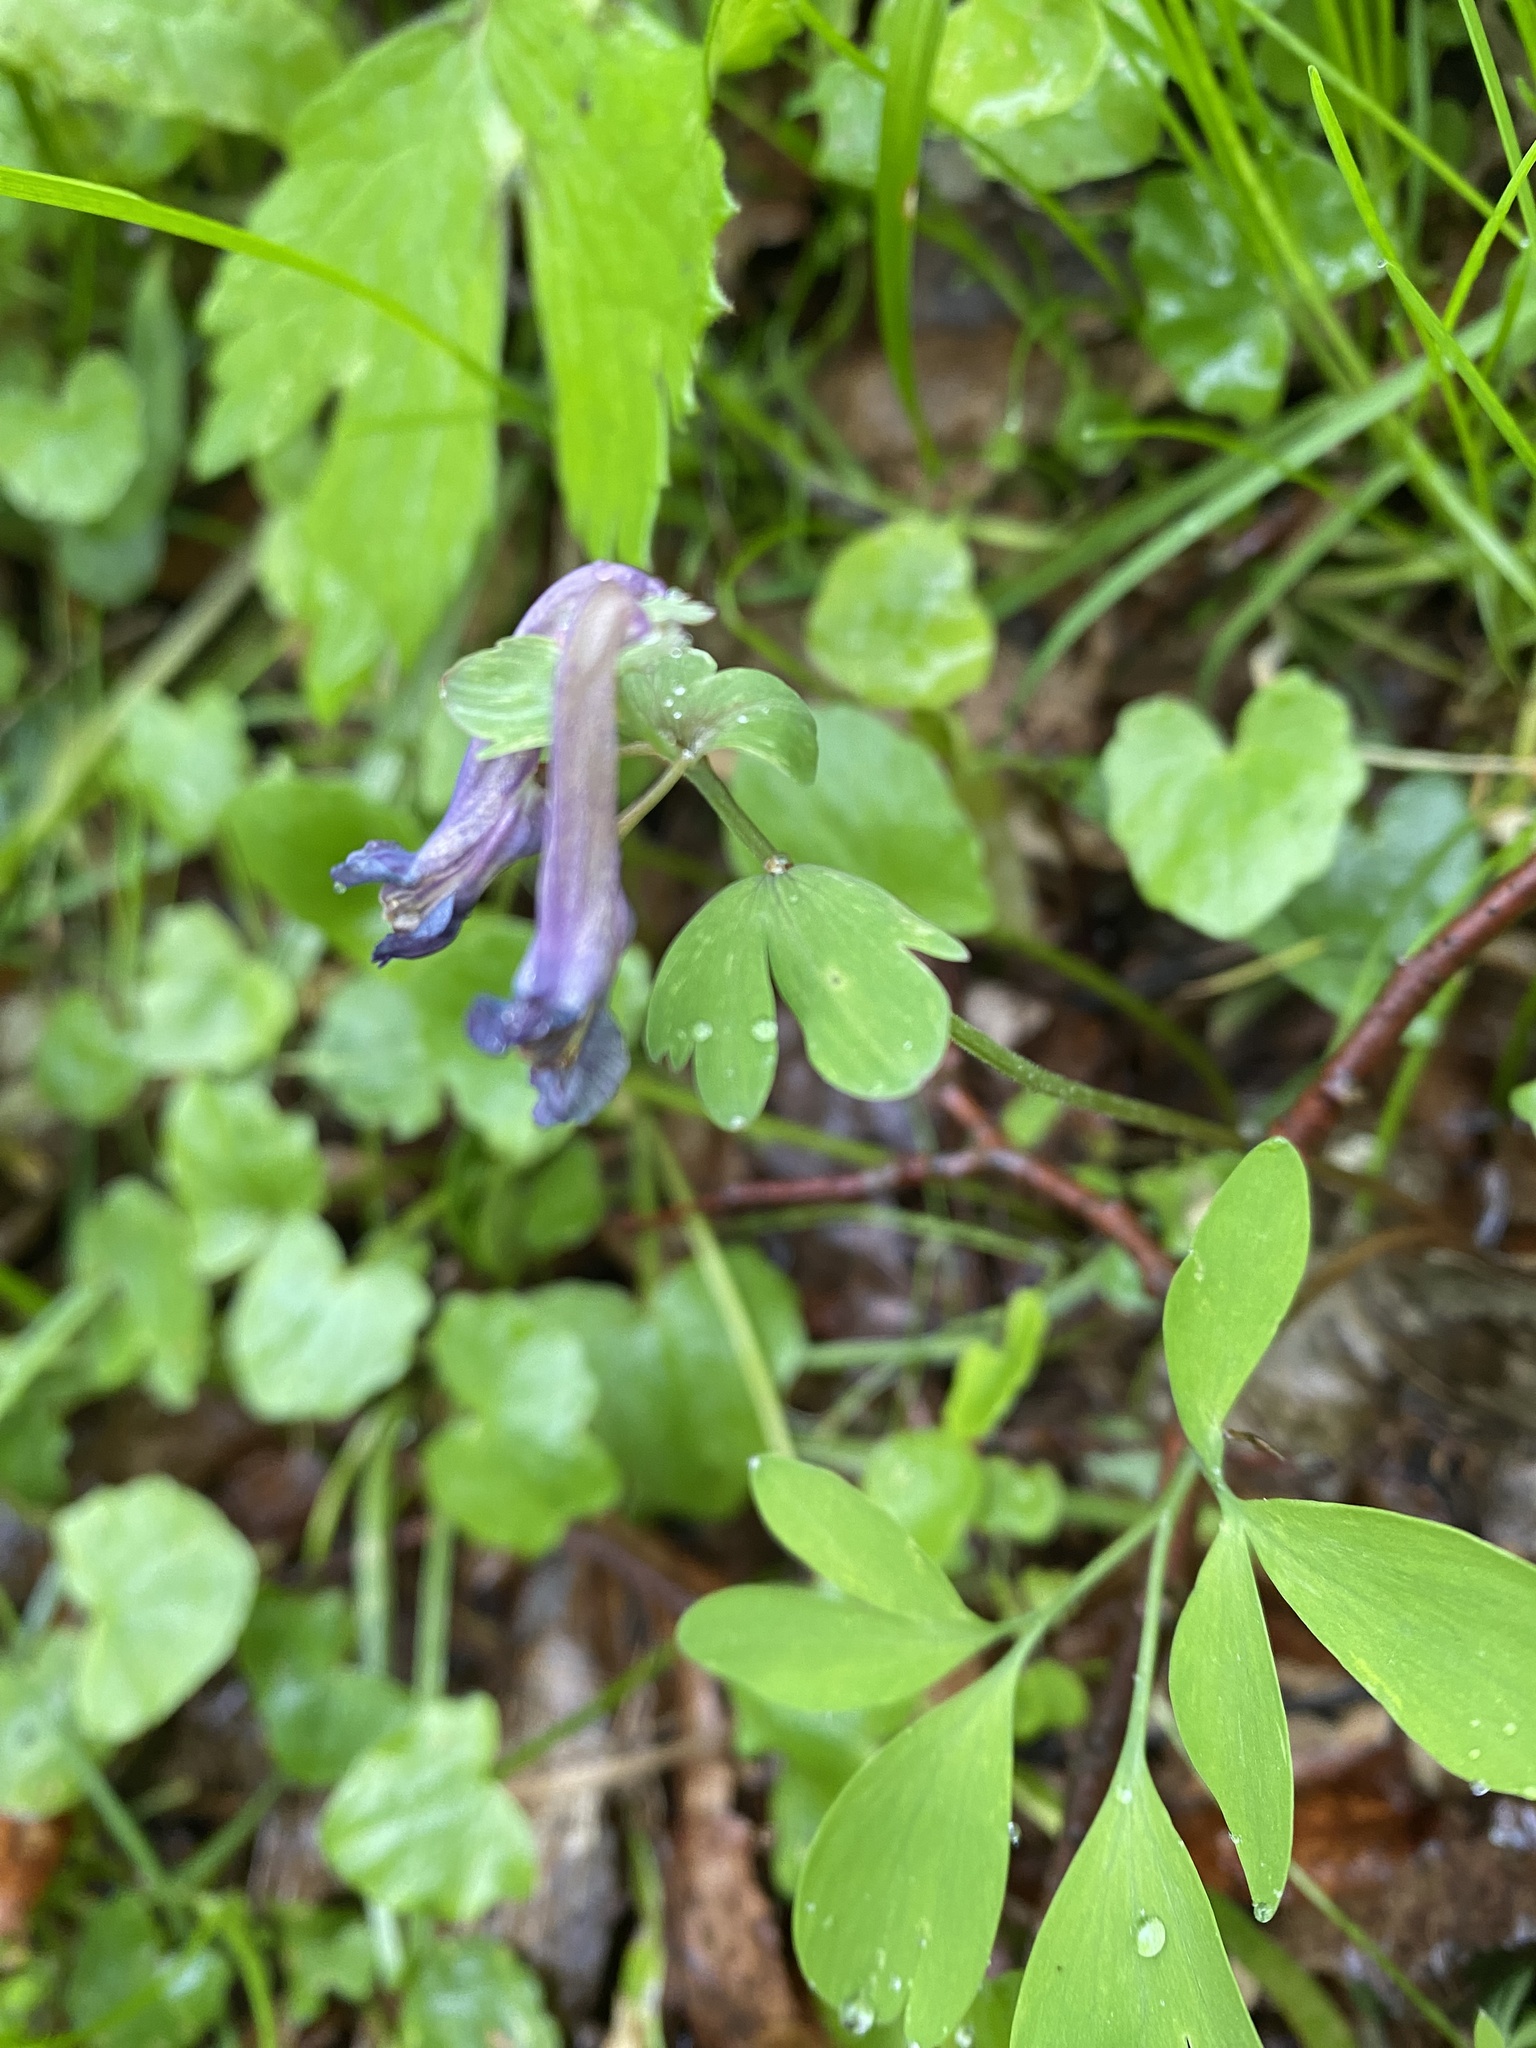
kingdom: Plantae
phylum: Tracheophyta
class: Magnoliopsida
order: Ranunculales
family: Papaveraceae
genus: Corydalis
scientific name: Corydalis solida
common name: Bird-in-a-bush
